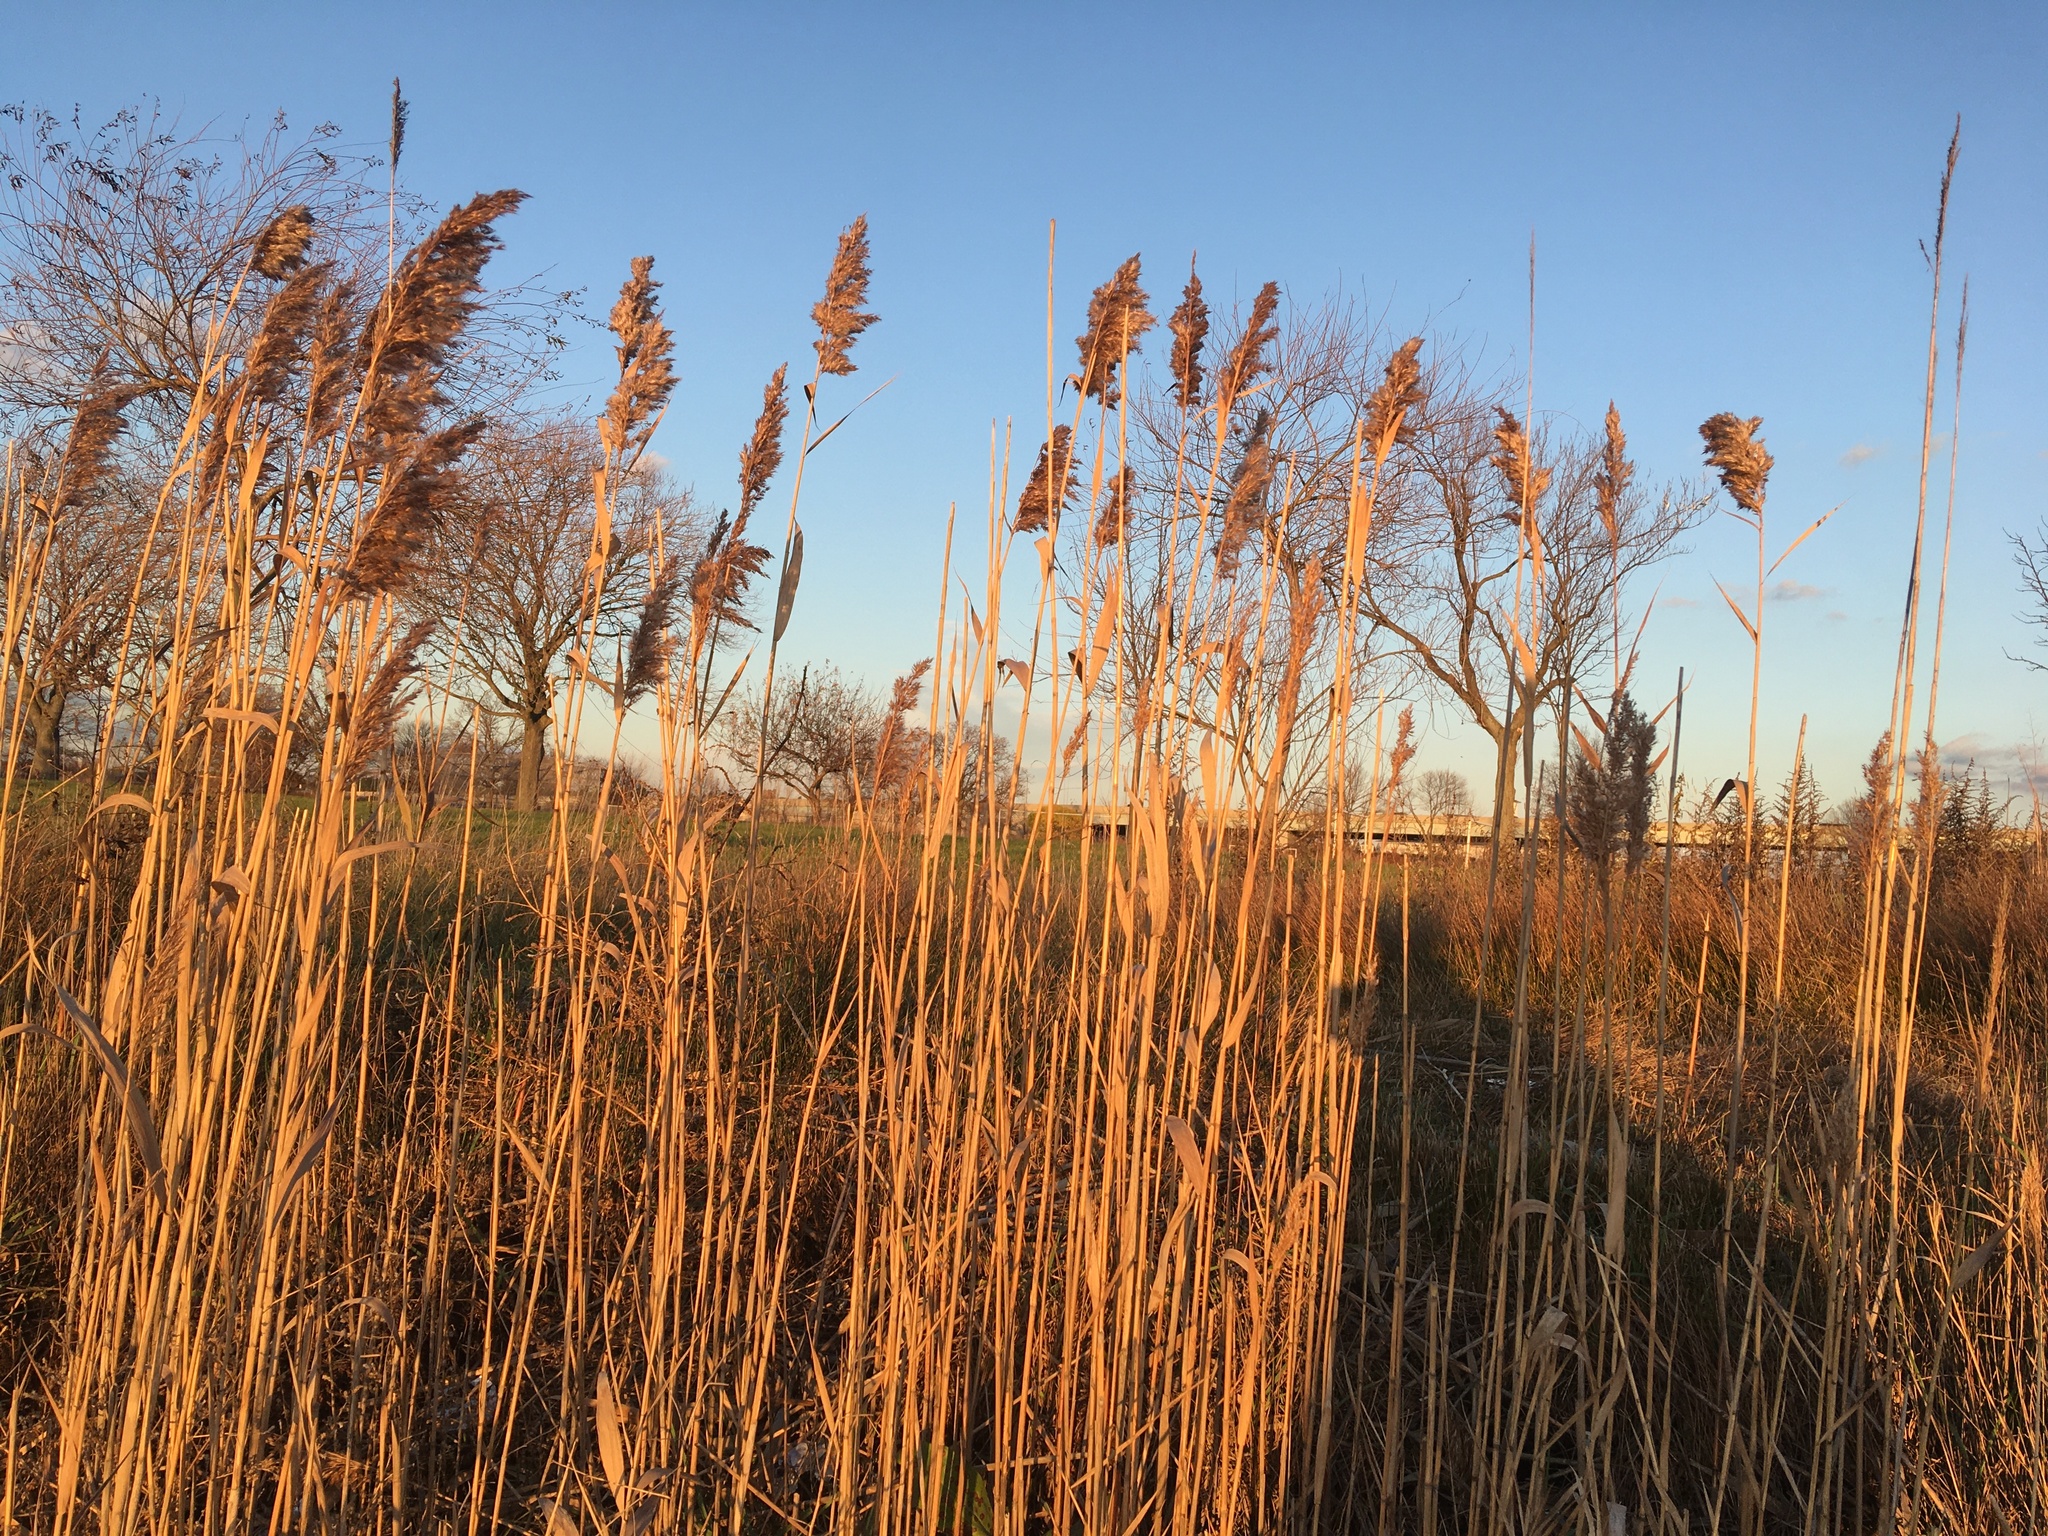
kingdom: Plantae
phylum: Tracheophyta
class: Liliopsida
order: Poales
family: Poaceae
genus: Phragmites
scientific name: Phragmites australis
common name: Common reed
